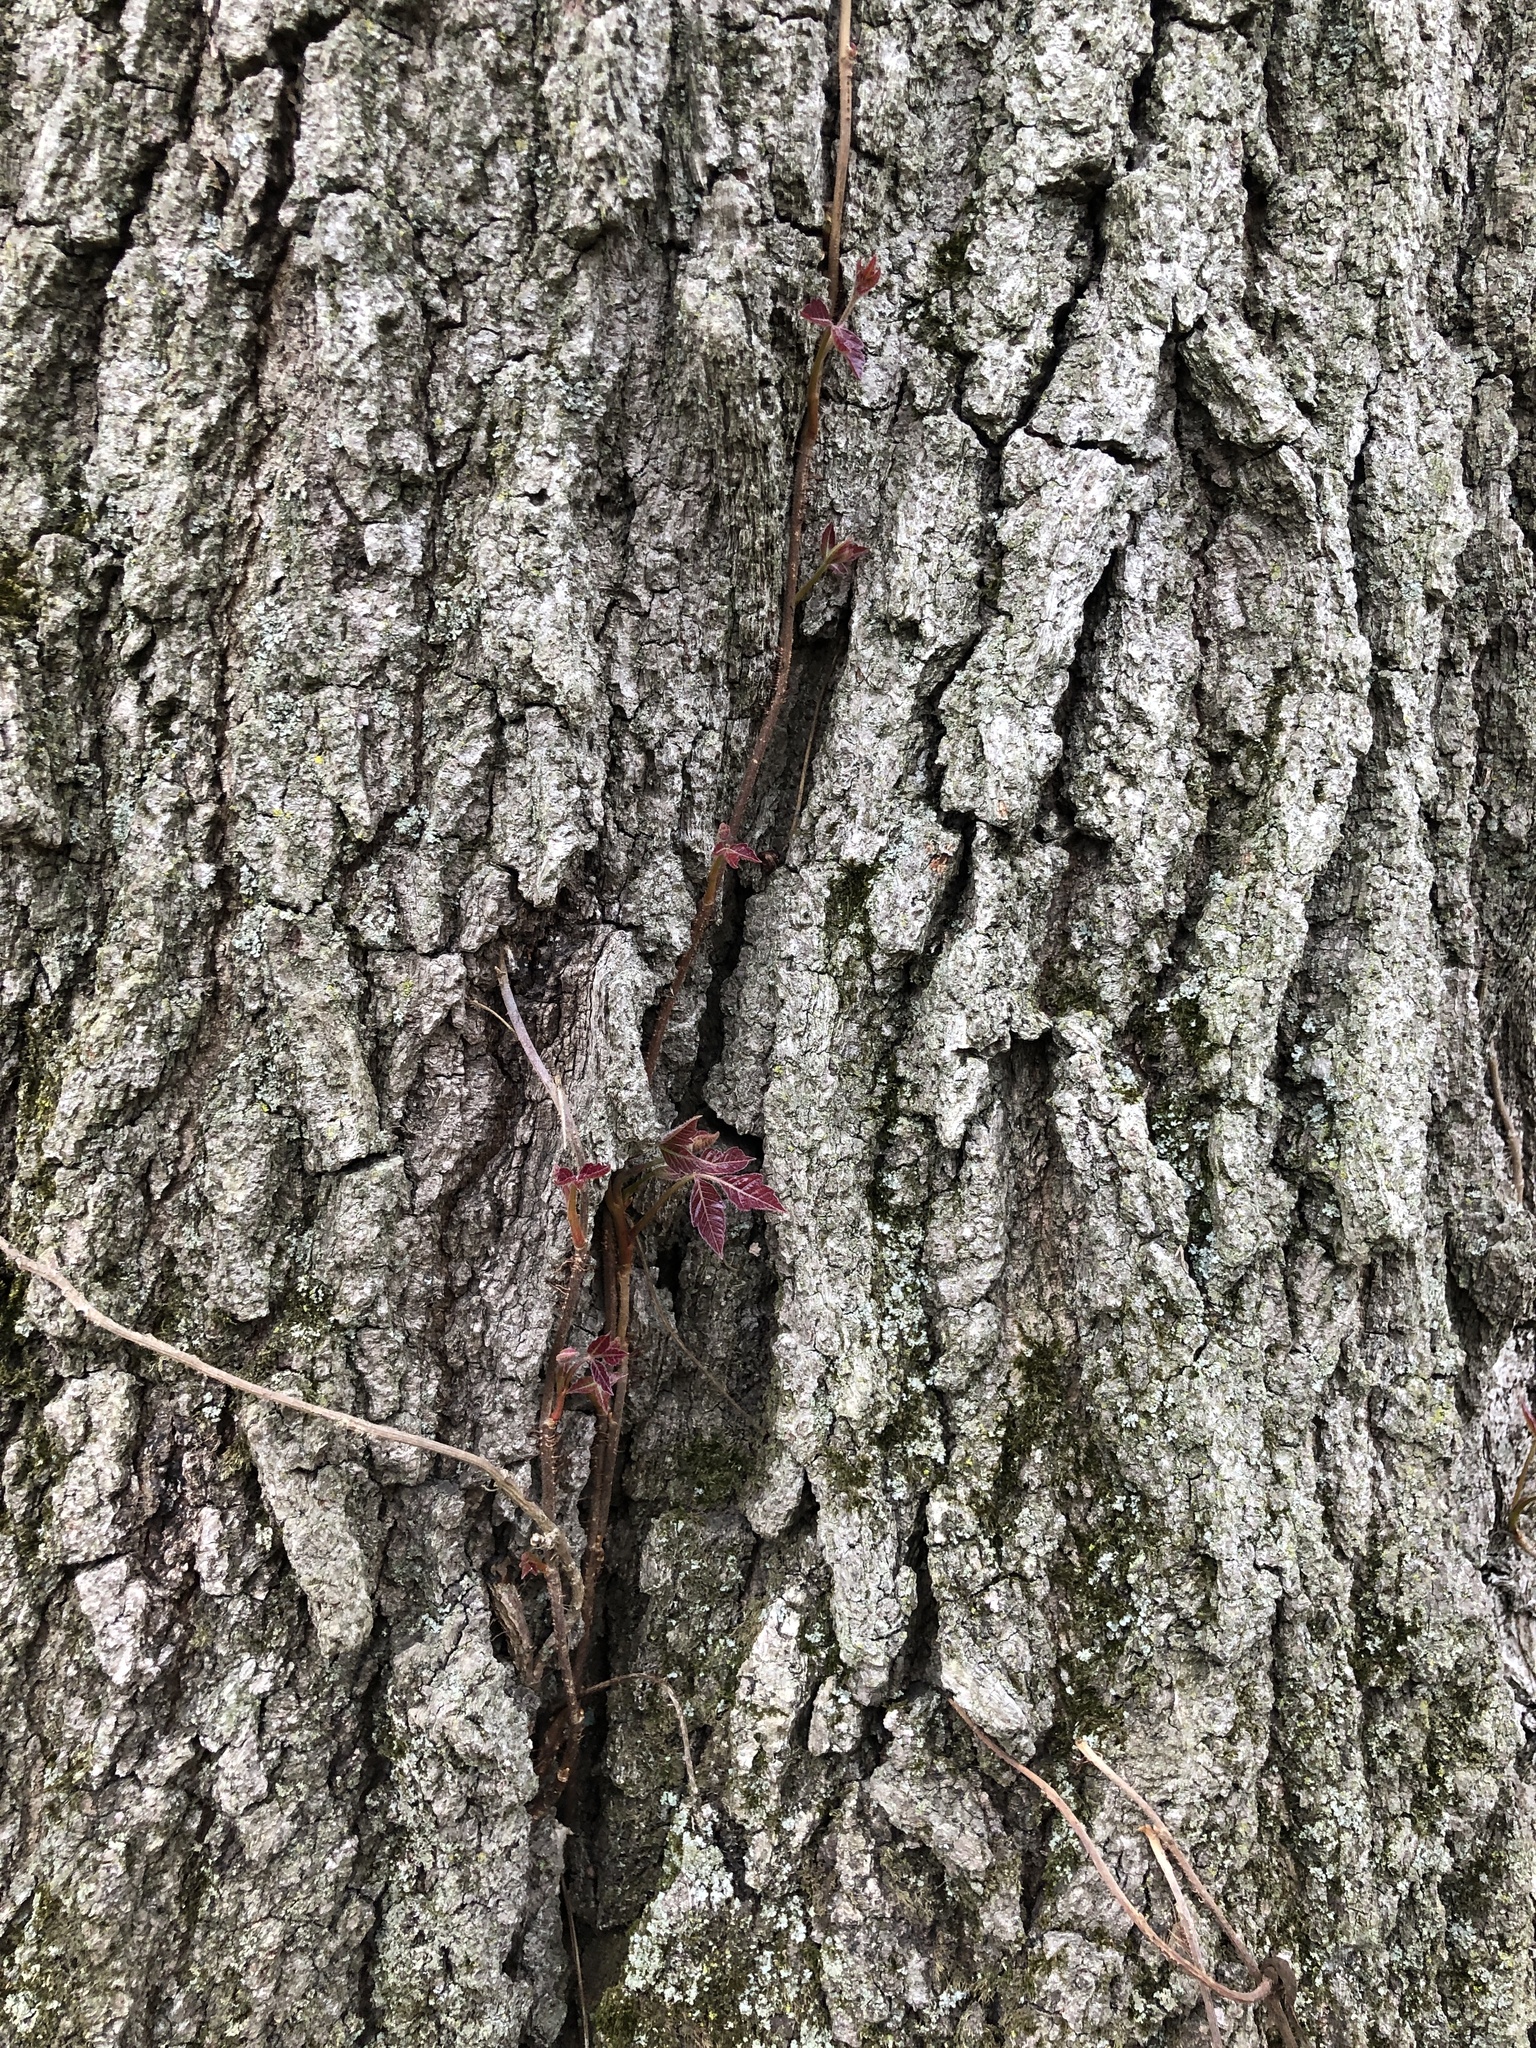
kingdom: Plantae
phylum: Tracheophyta
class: Magnoliopsida
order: Sapindales
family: Anacardiaceae
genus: Toxicodendron
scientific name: Toxicodendron radicans
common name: Poison ivy
